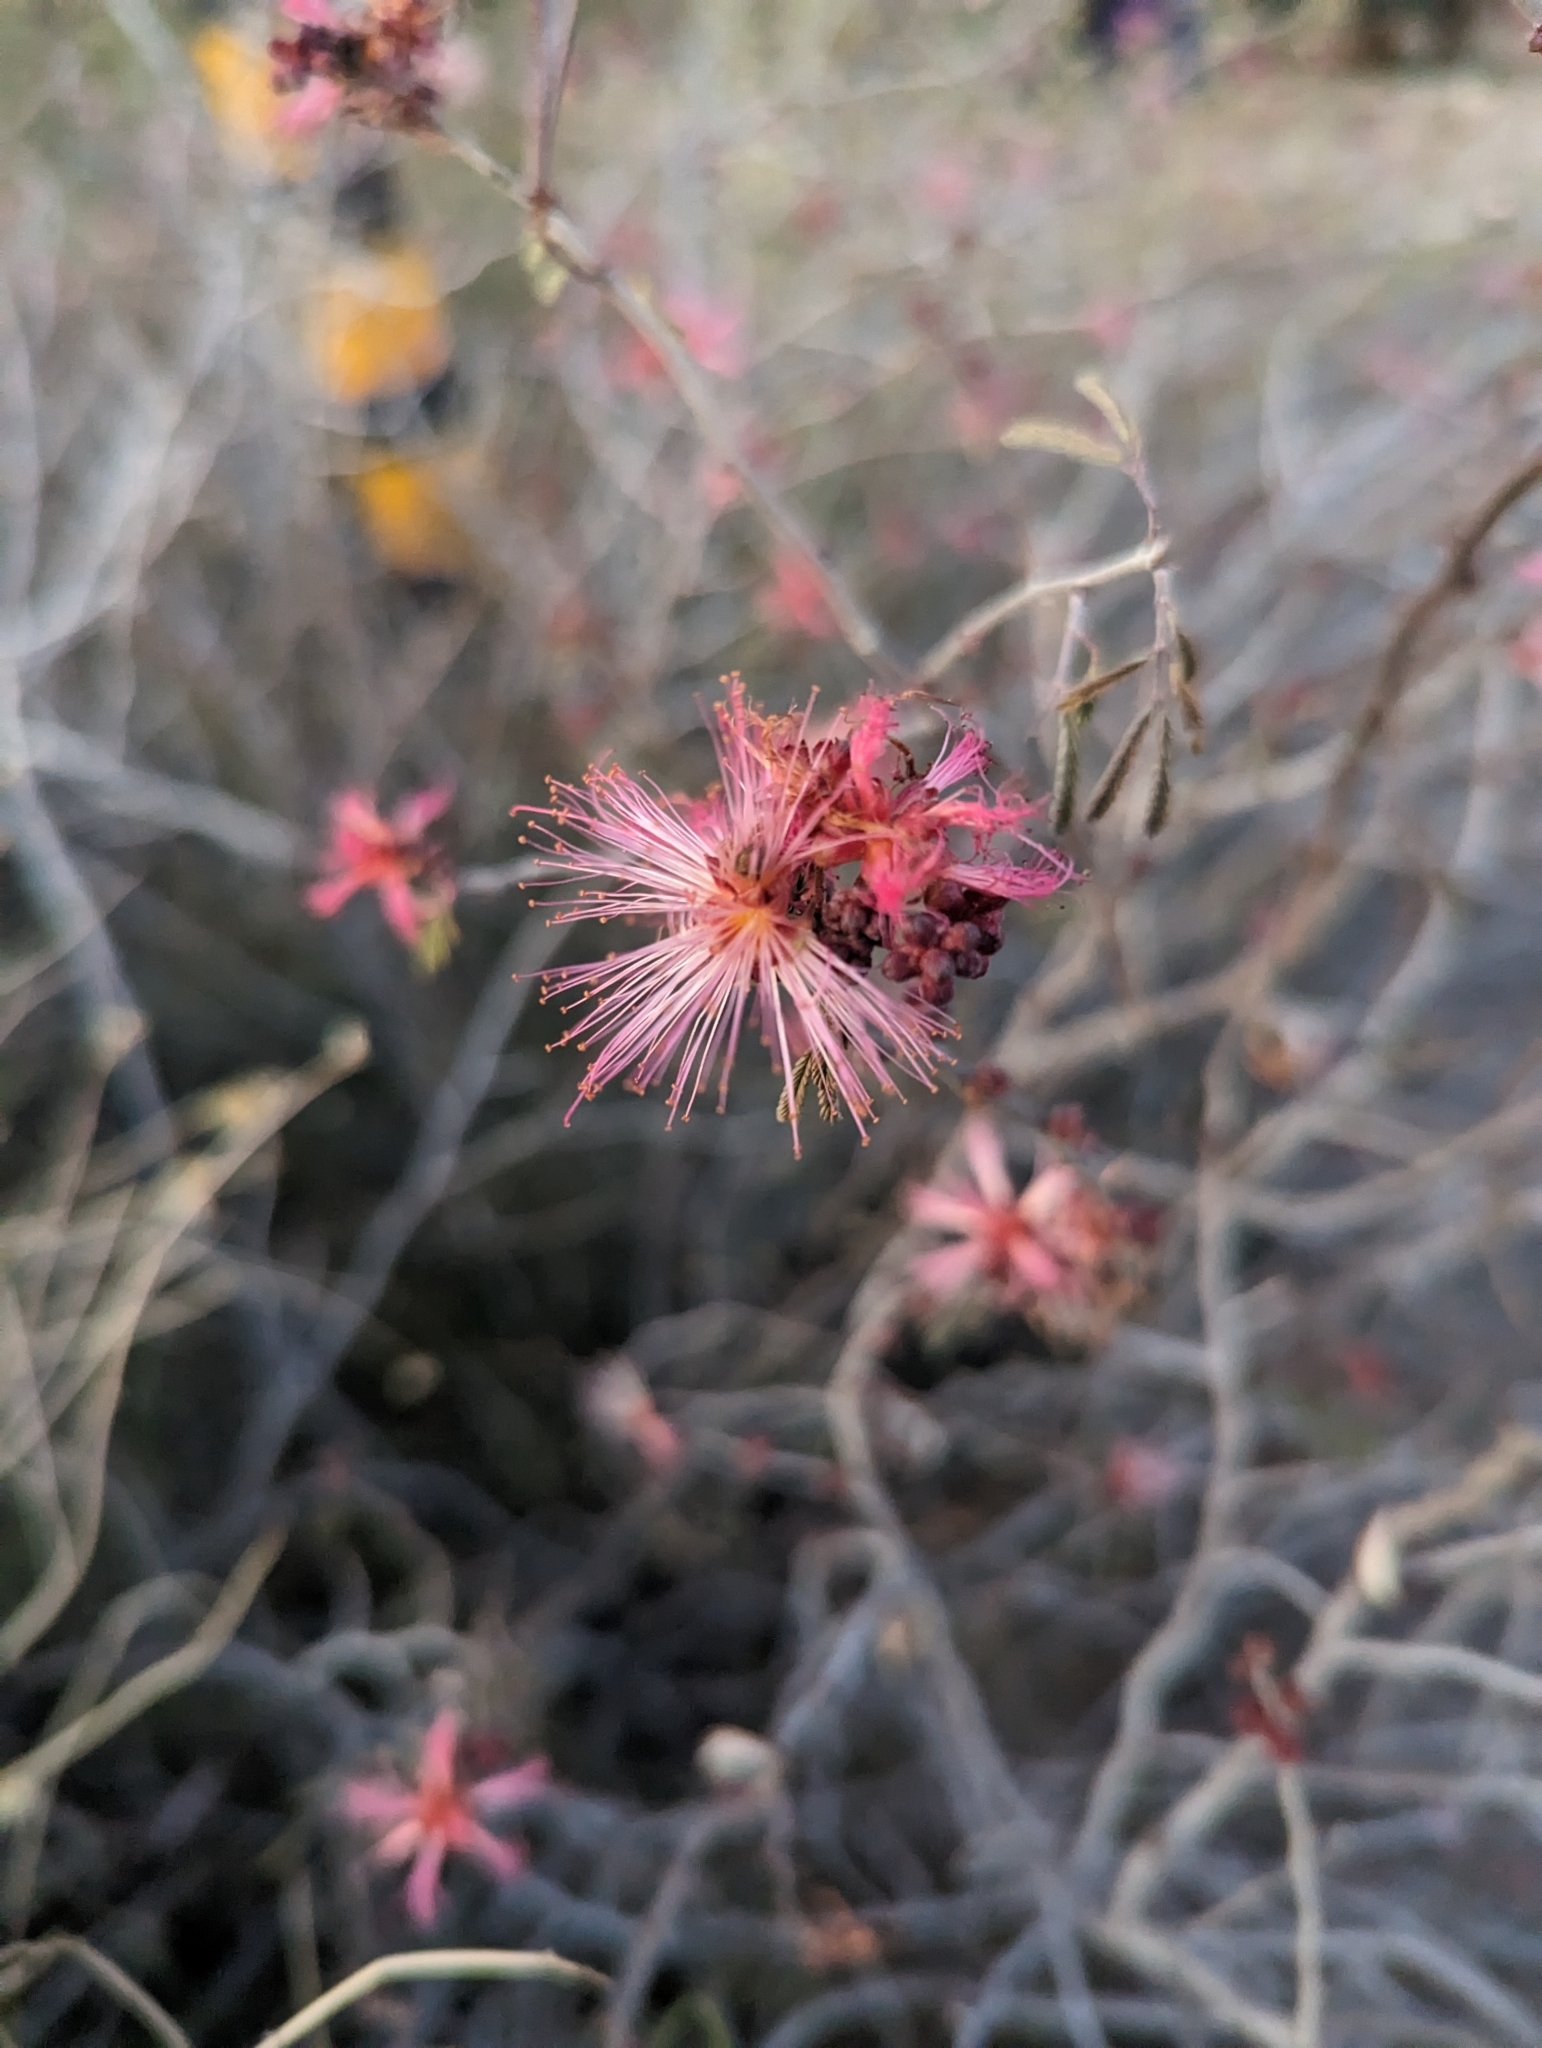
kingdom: Plantae
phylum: Tracheophyta
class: Magnoliopsida
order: Fabales
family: Fabaceae
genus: Calliandra
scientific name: Calliandra eriophylla
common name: Fairy-duster
